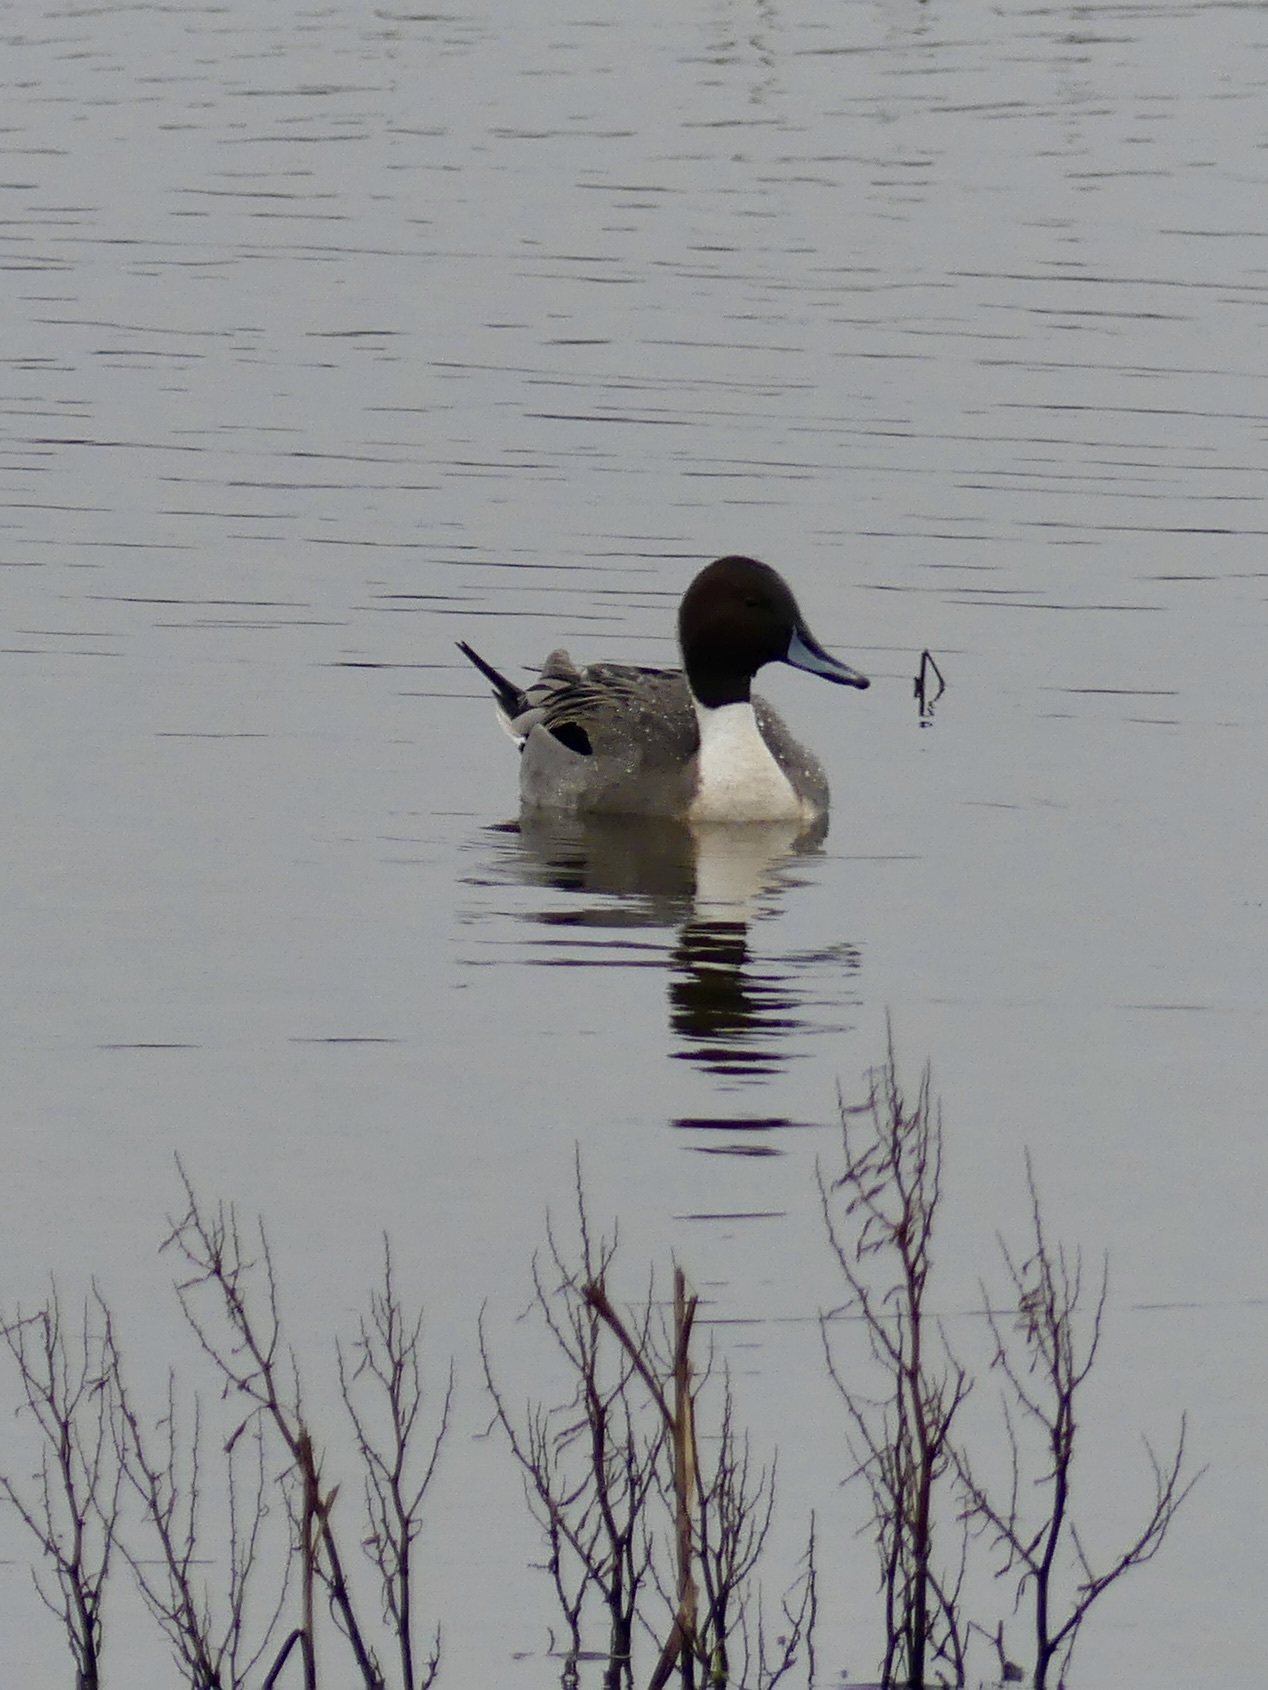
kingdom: Animalia
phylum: Chordata
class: Aves
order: Anseriformes
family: Anatidae
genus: Anas
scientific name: Anas acuta
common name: Northern pintail
